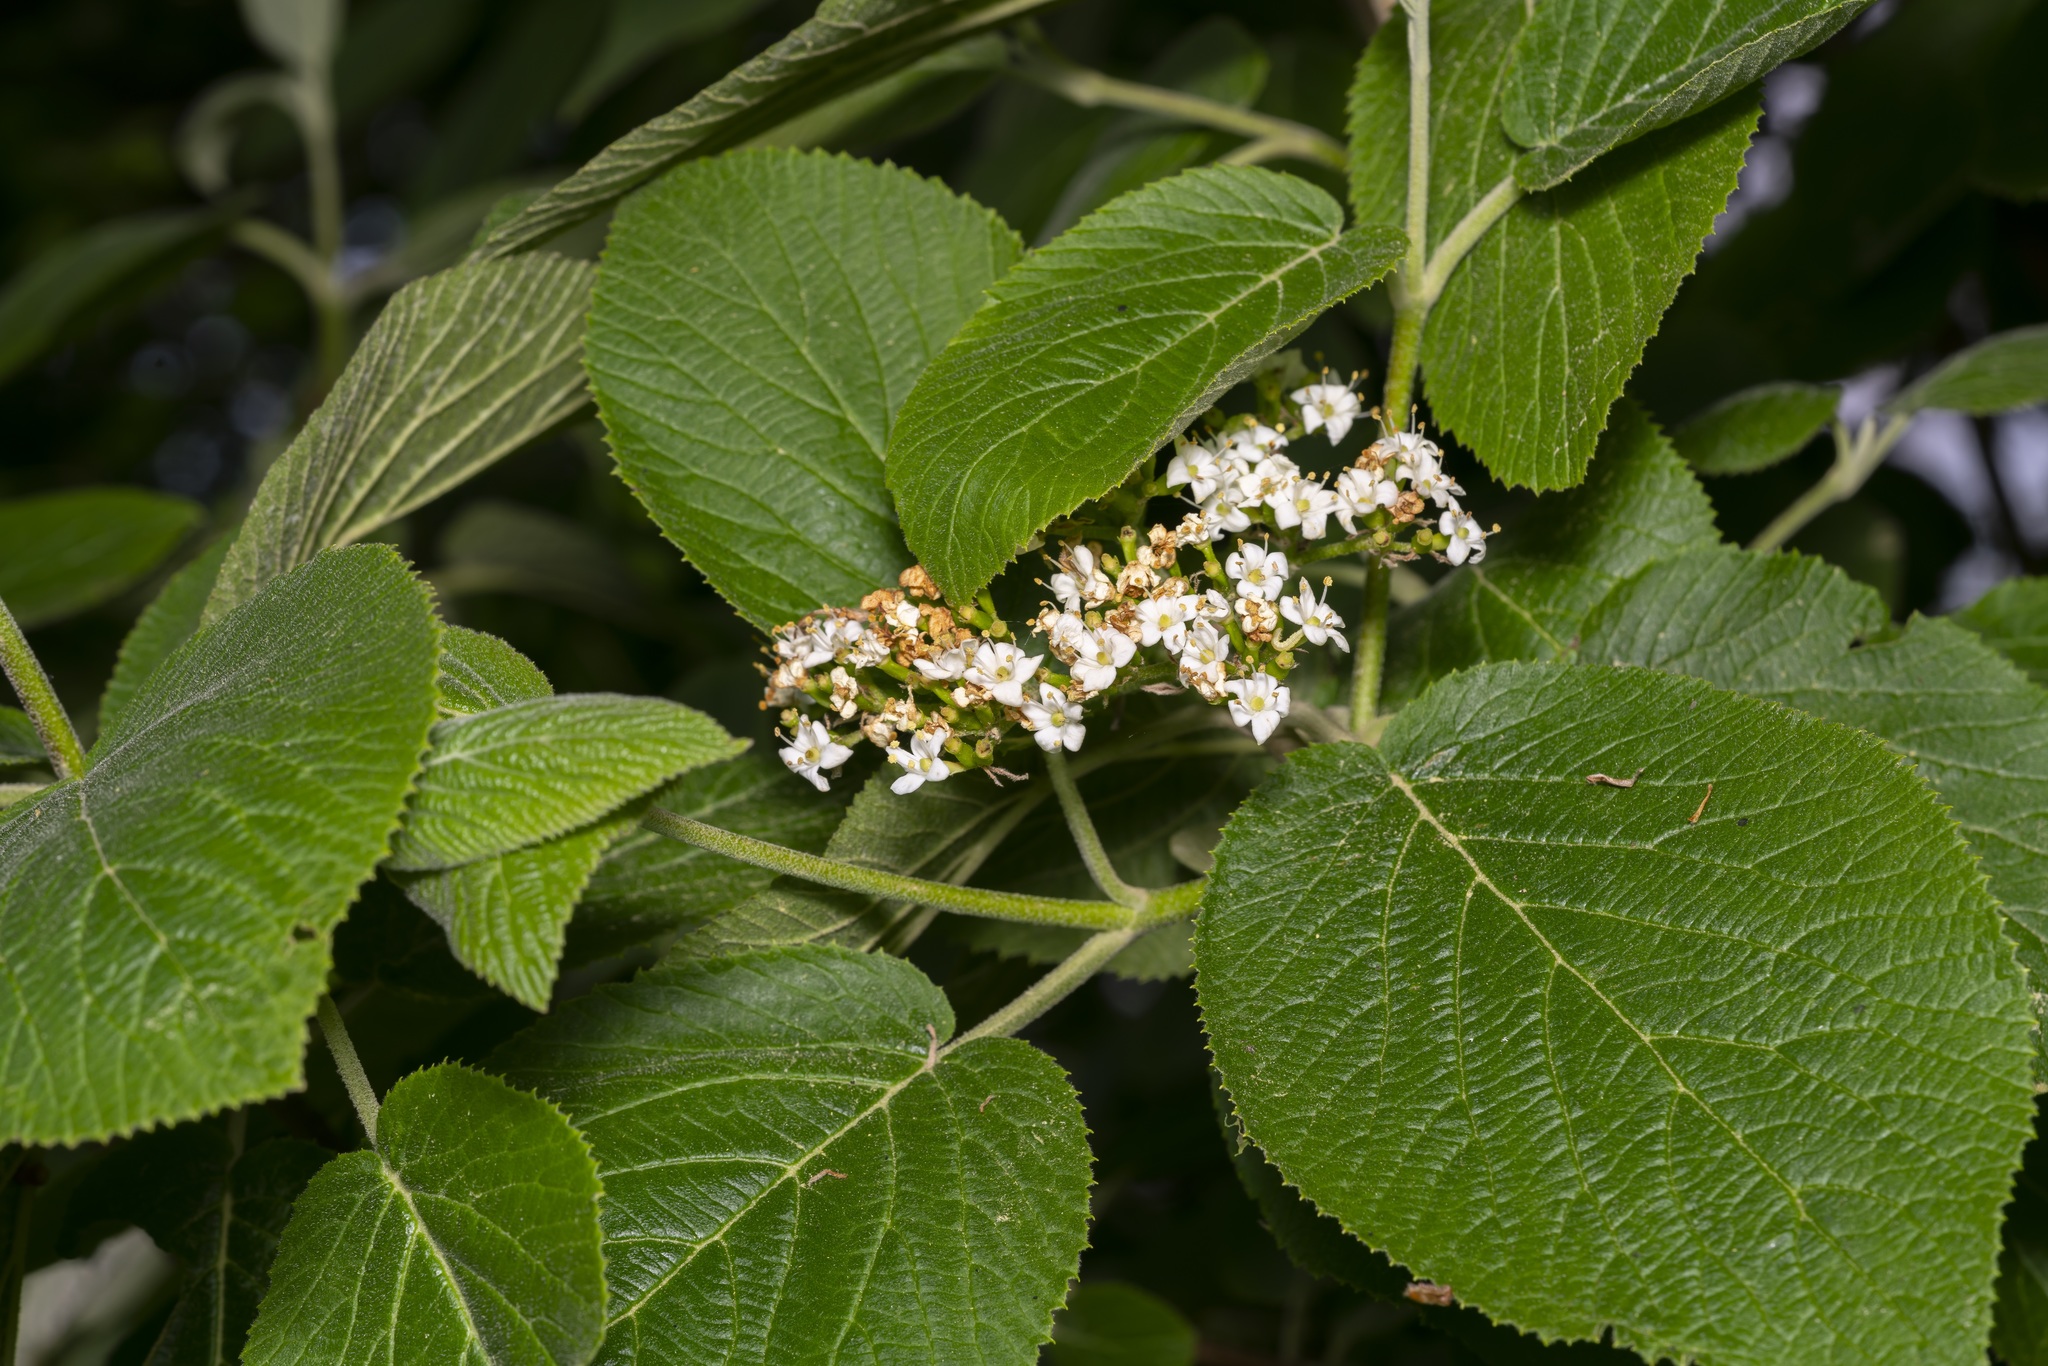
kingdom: Plantae
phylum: Tracheophyta
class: Magnoliopsida
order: Dipsacales
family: Viburnaceae
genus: Viburnum
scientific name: Viburnum lantana
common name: Wayfaring tree
